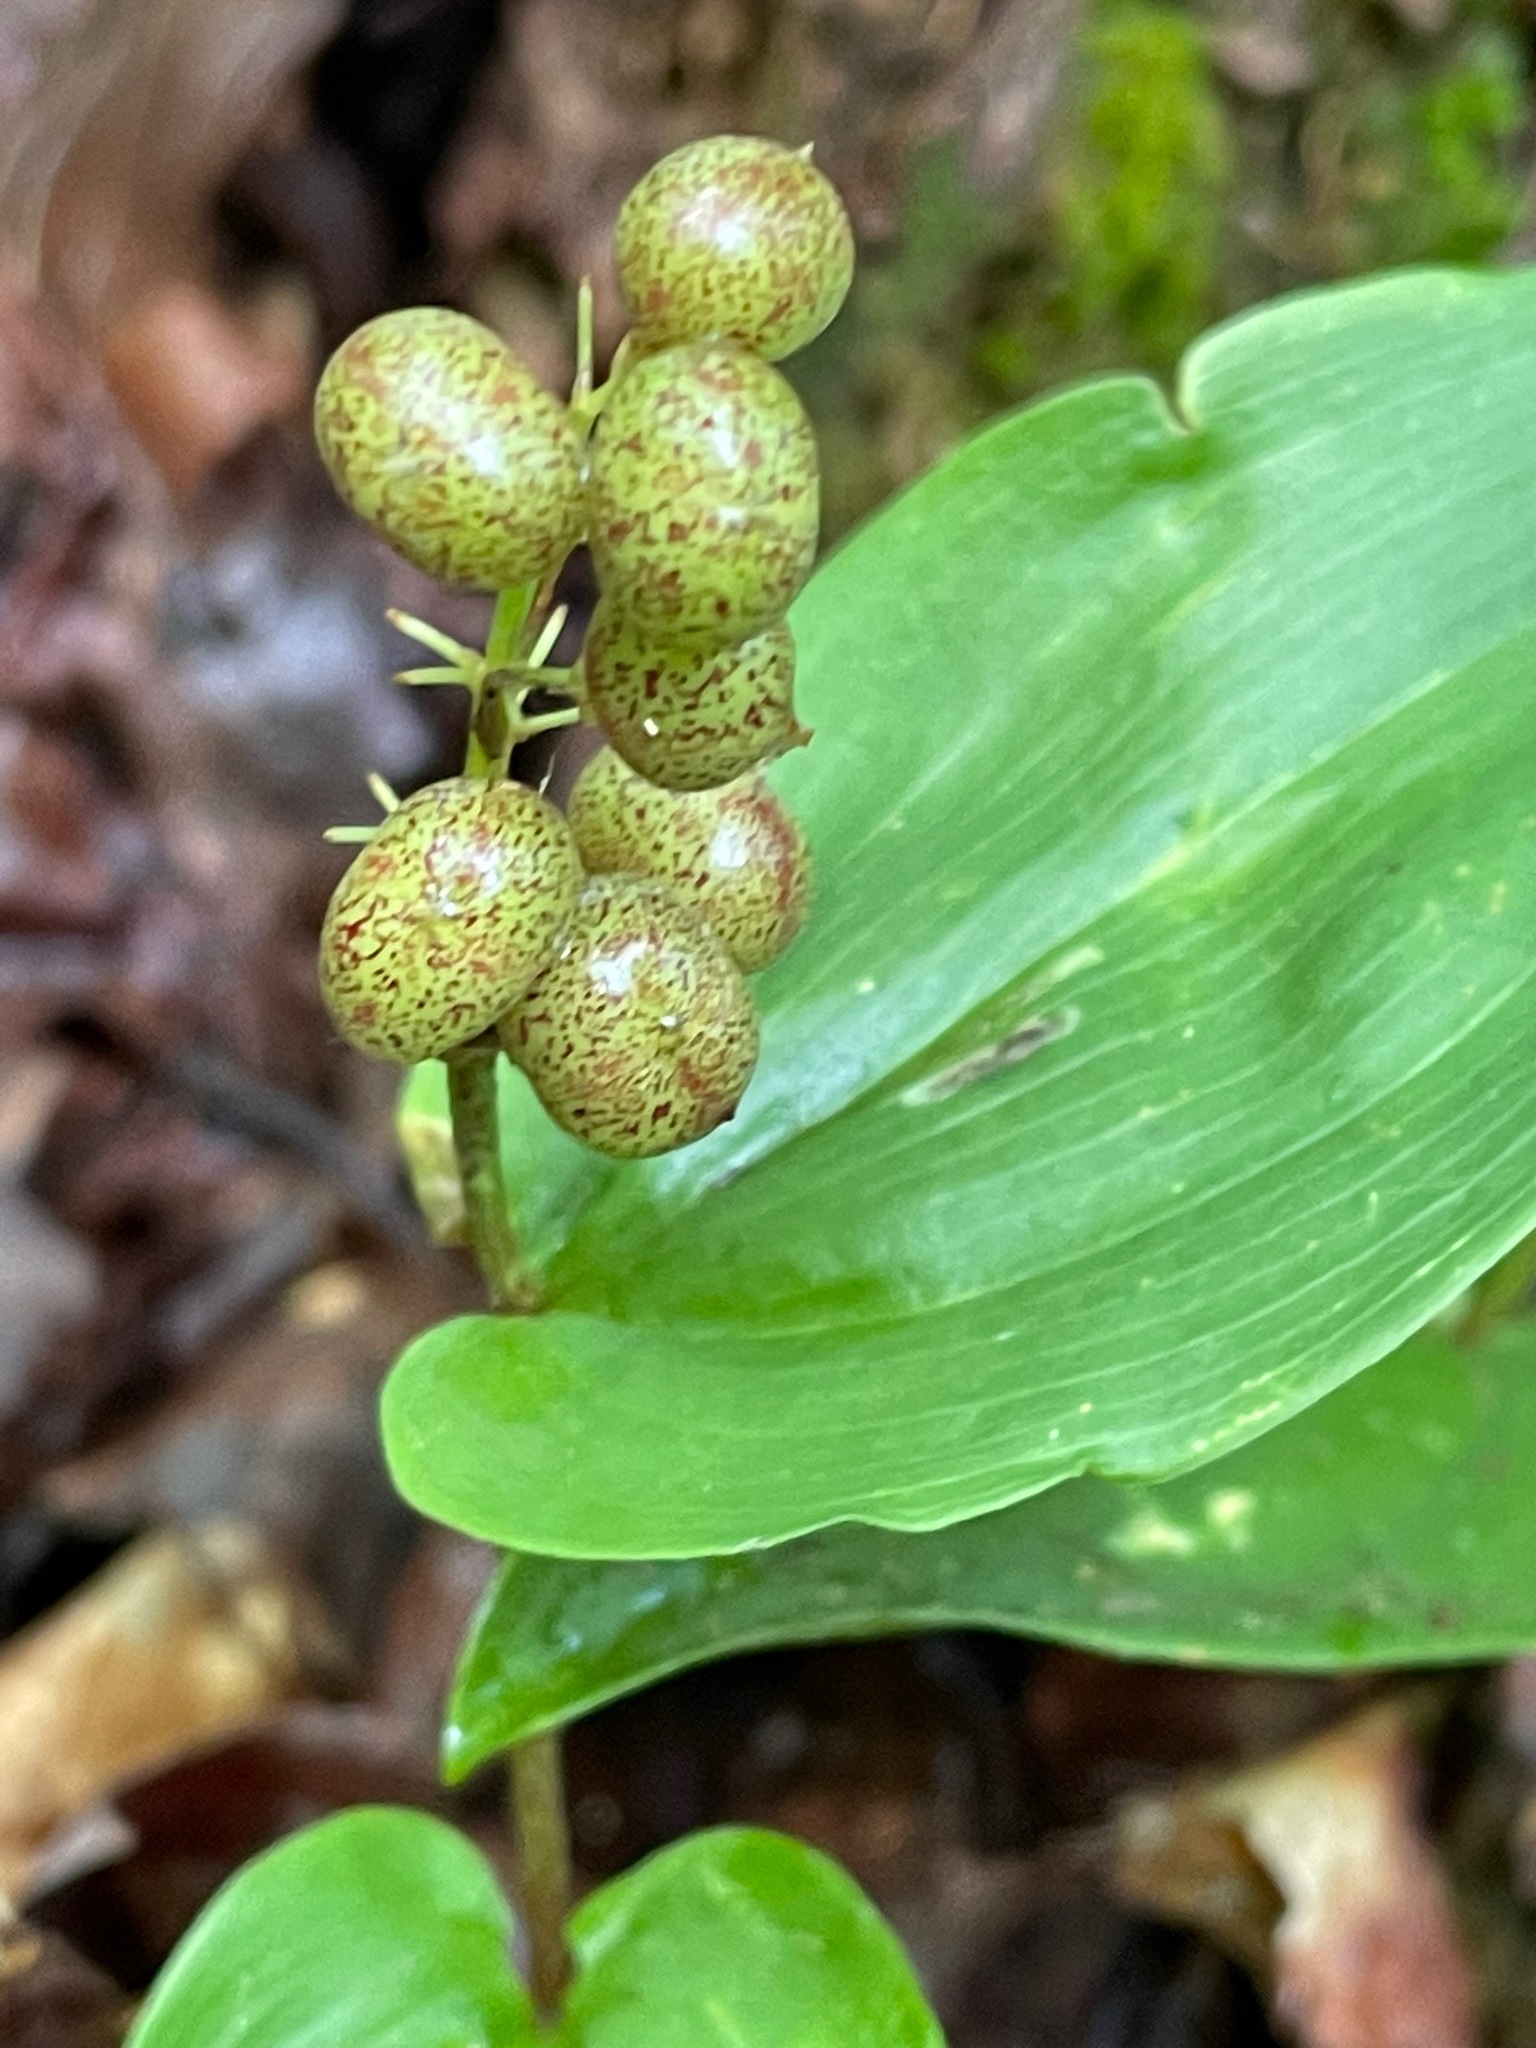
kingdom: Plantae
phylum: Tracheophyta
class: Liliopsida
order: Asparagales
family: Asparagaceae
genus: Maianthemum
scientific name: Maianthemum canadense
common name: False lily-of-the-valley
